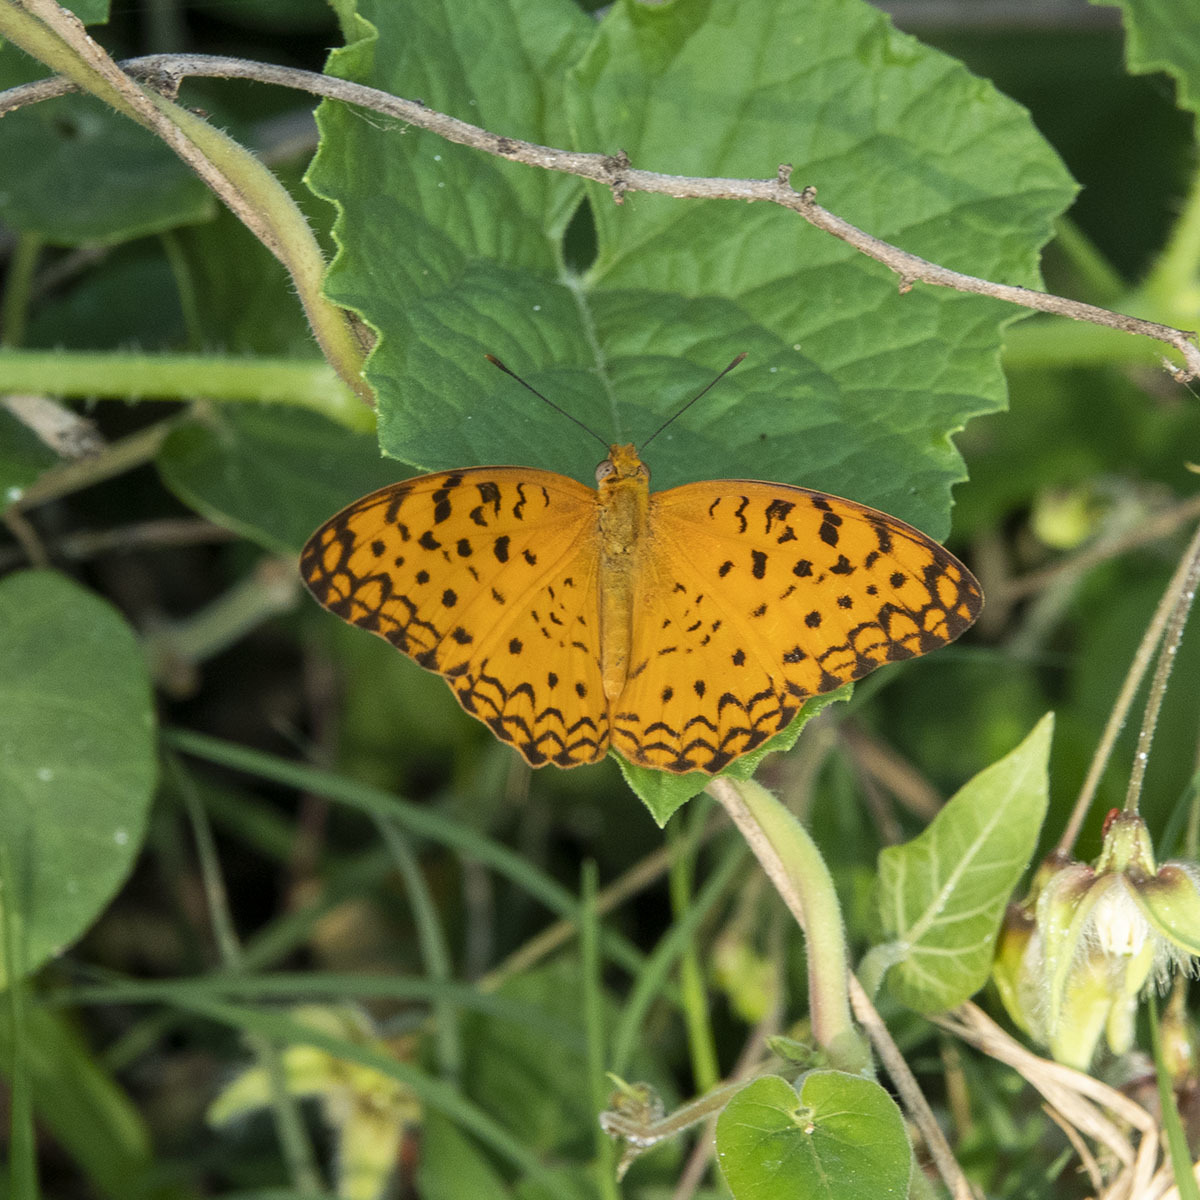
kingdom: Animalia
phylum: Arthropoda
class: Insecta
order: Lepidoptera
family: Nymphalidae
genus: Phalanta
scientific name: Phalanta phalantha
